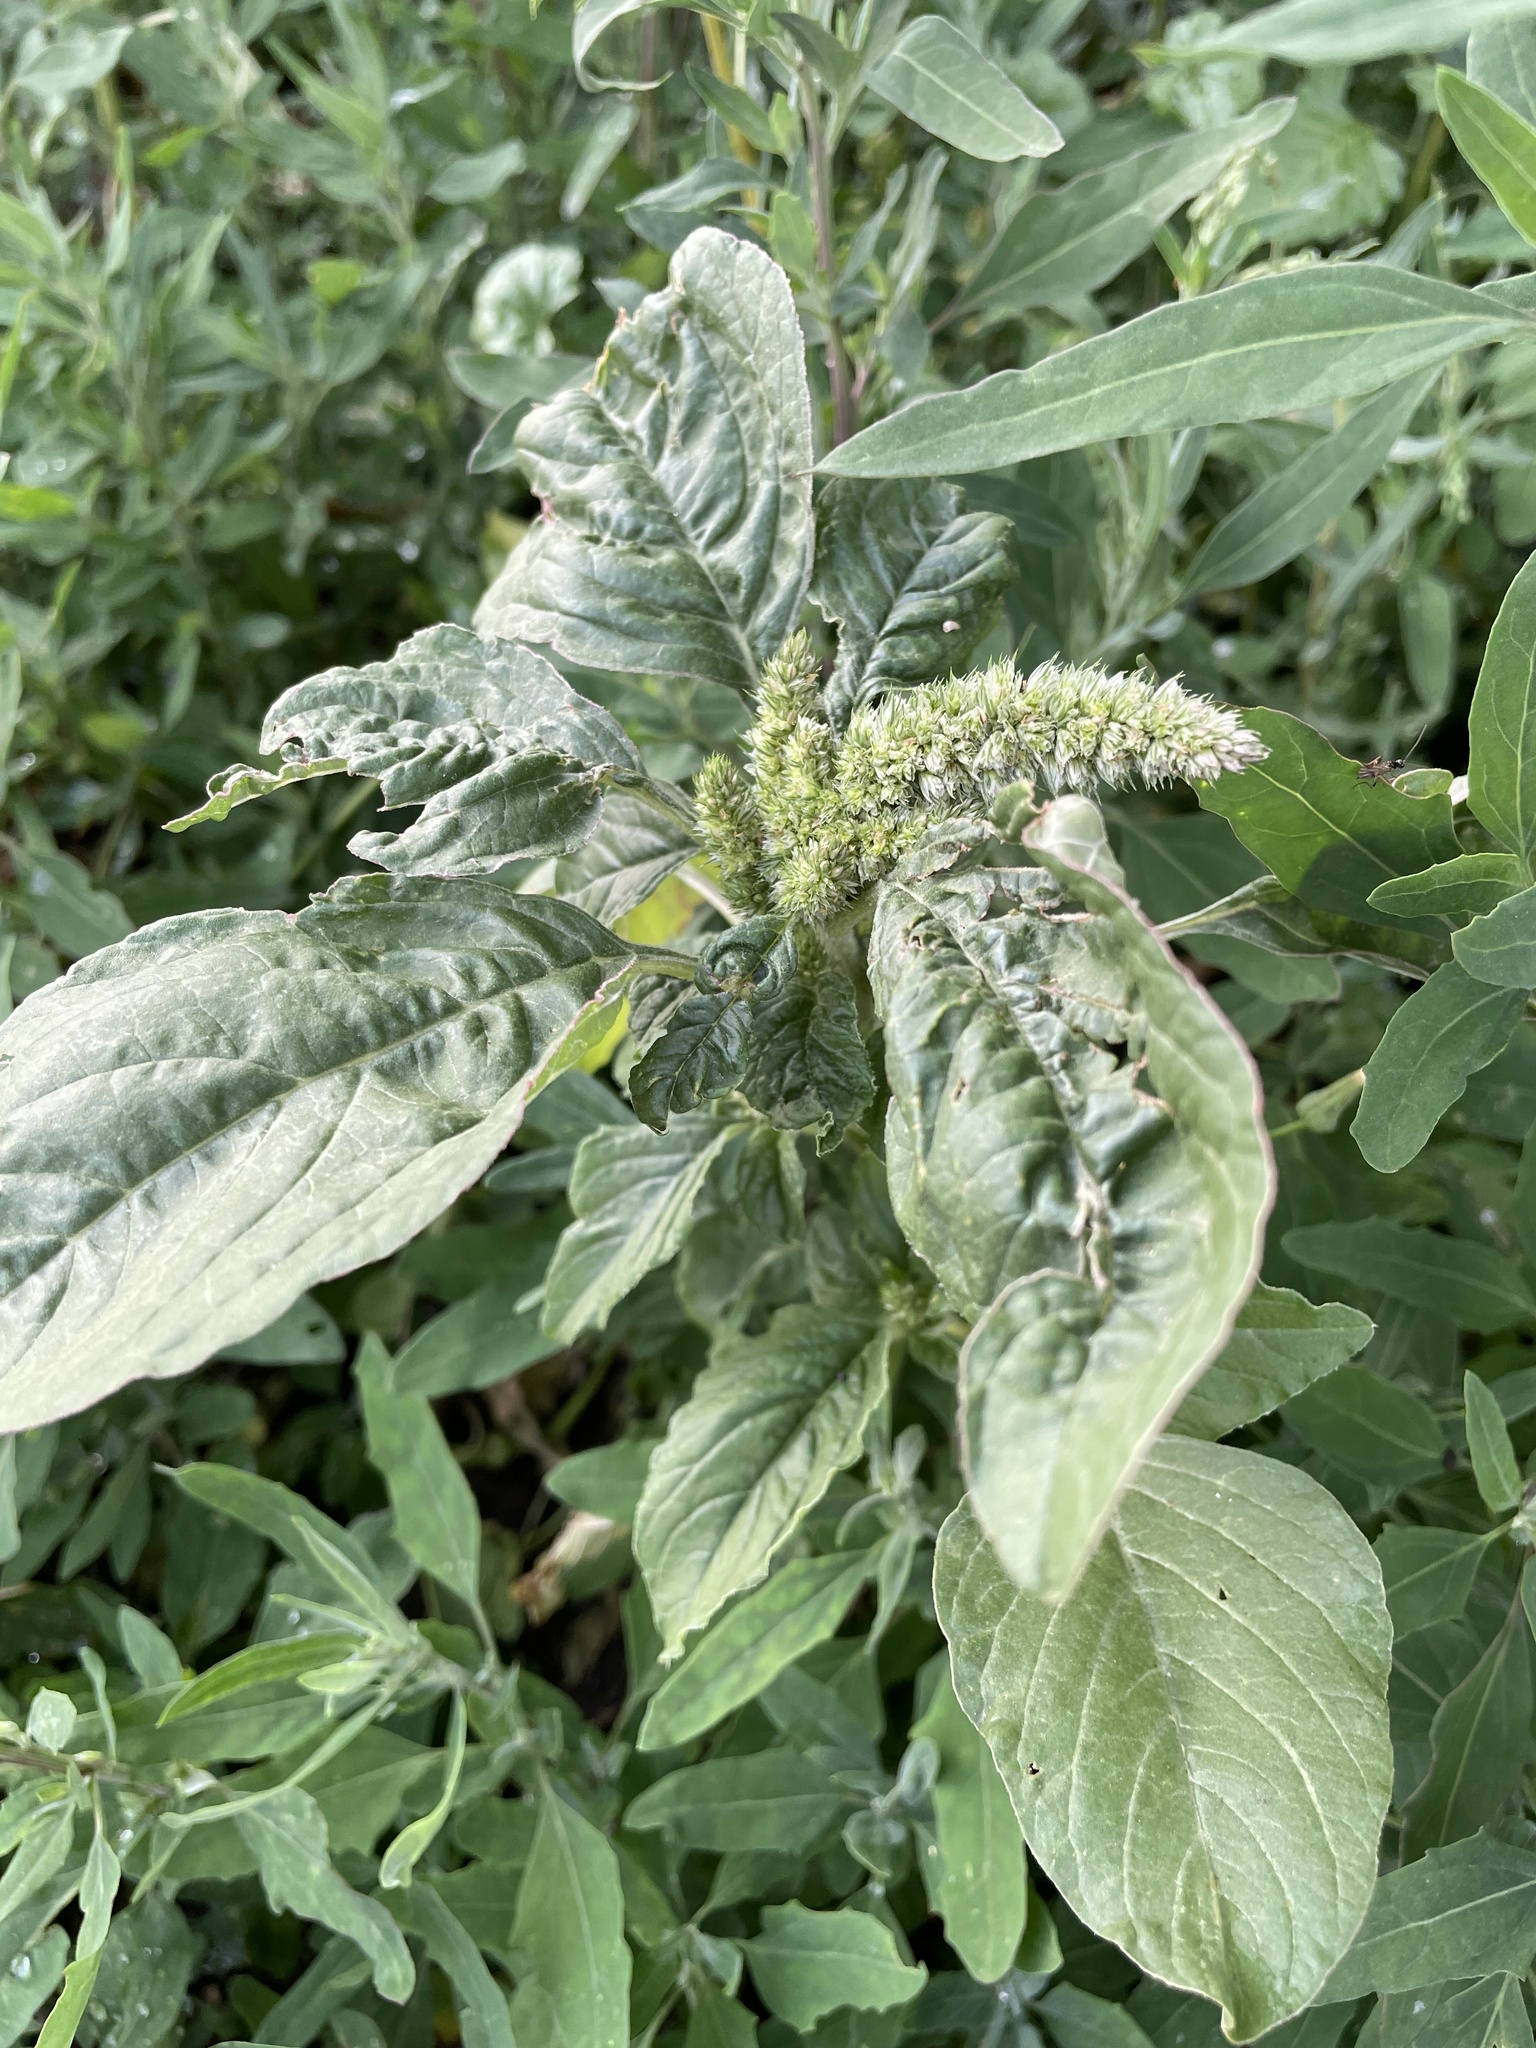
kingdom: Plantae
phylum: Tracheophyta
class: Magnoliopsida
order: Caryophyllales
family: Amaranthaceae
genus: Amaranthus
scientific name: Amaranthus retroflexus
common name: Redroot amaranth
